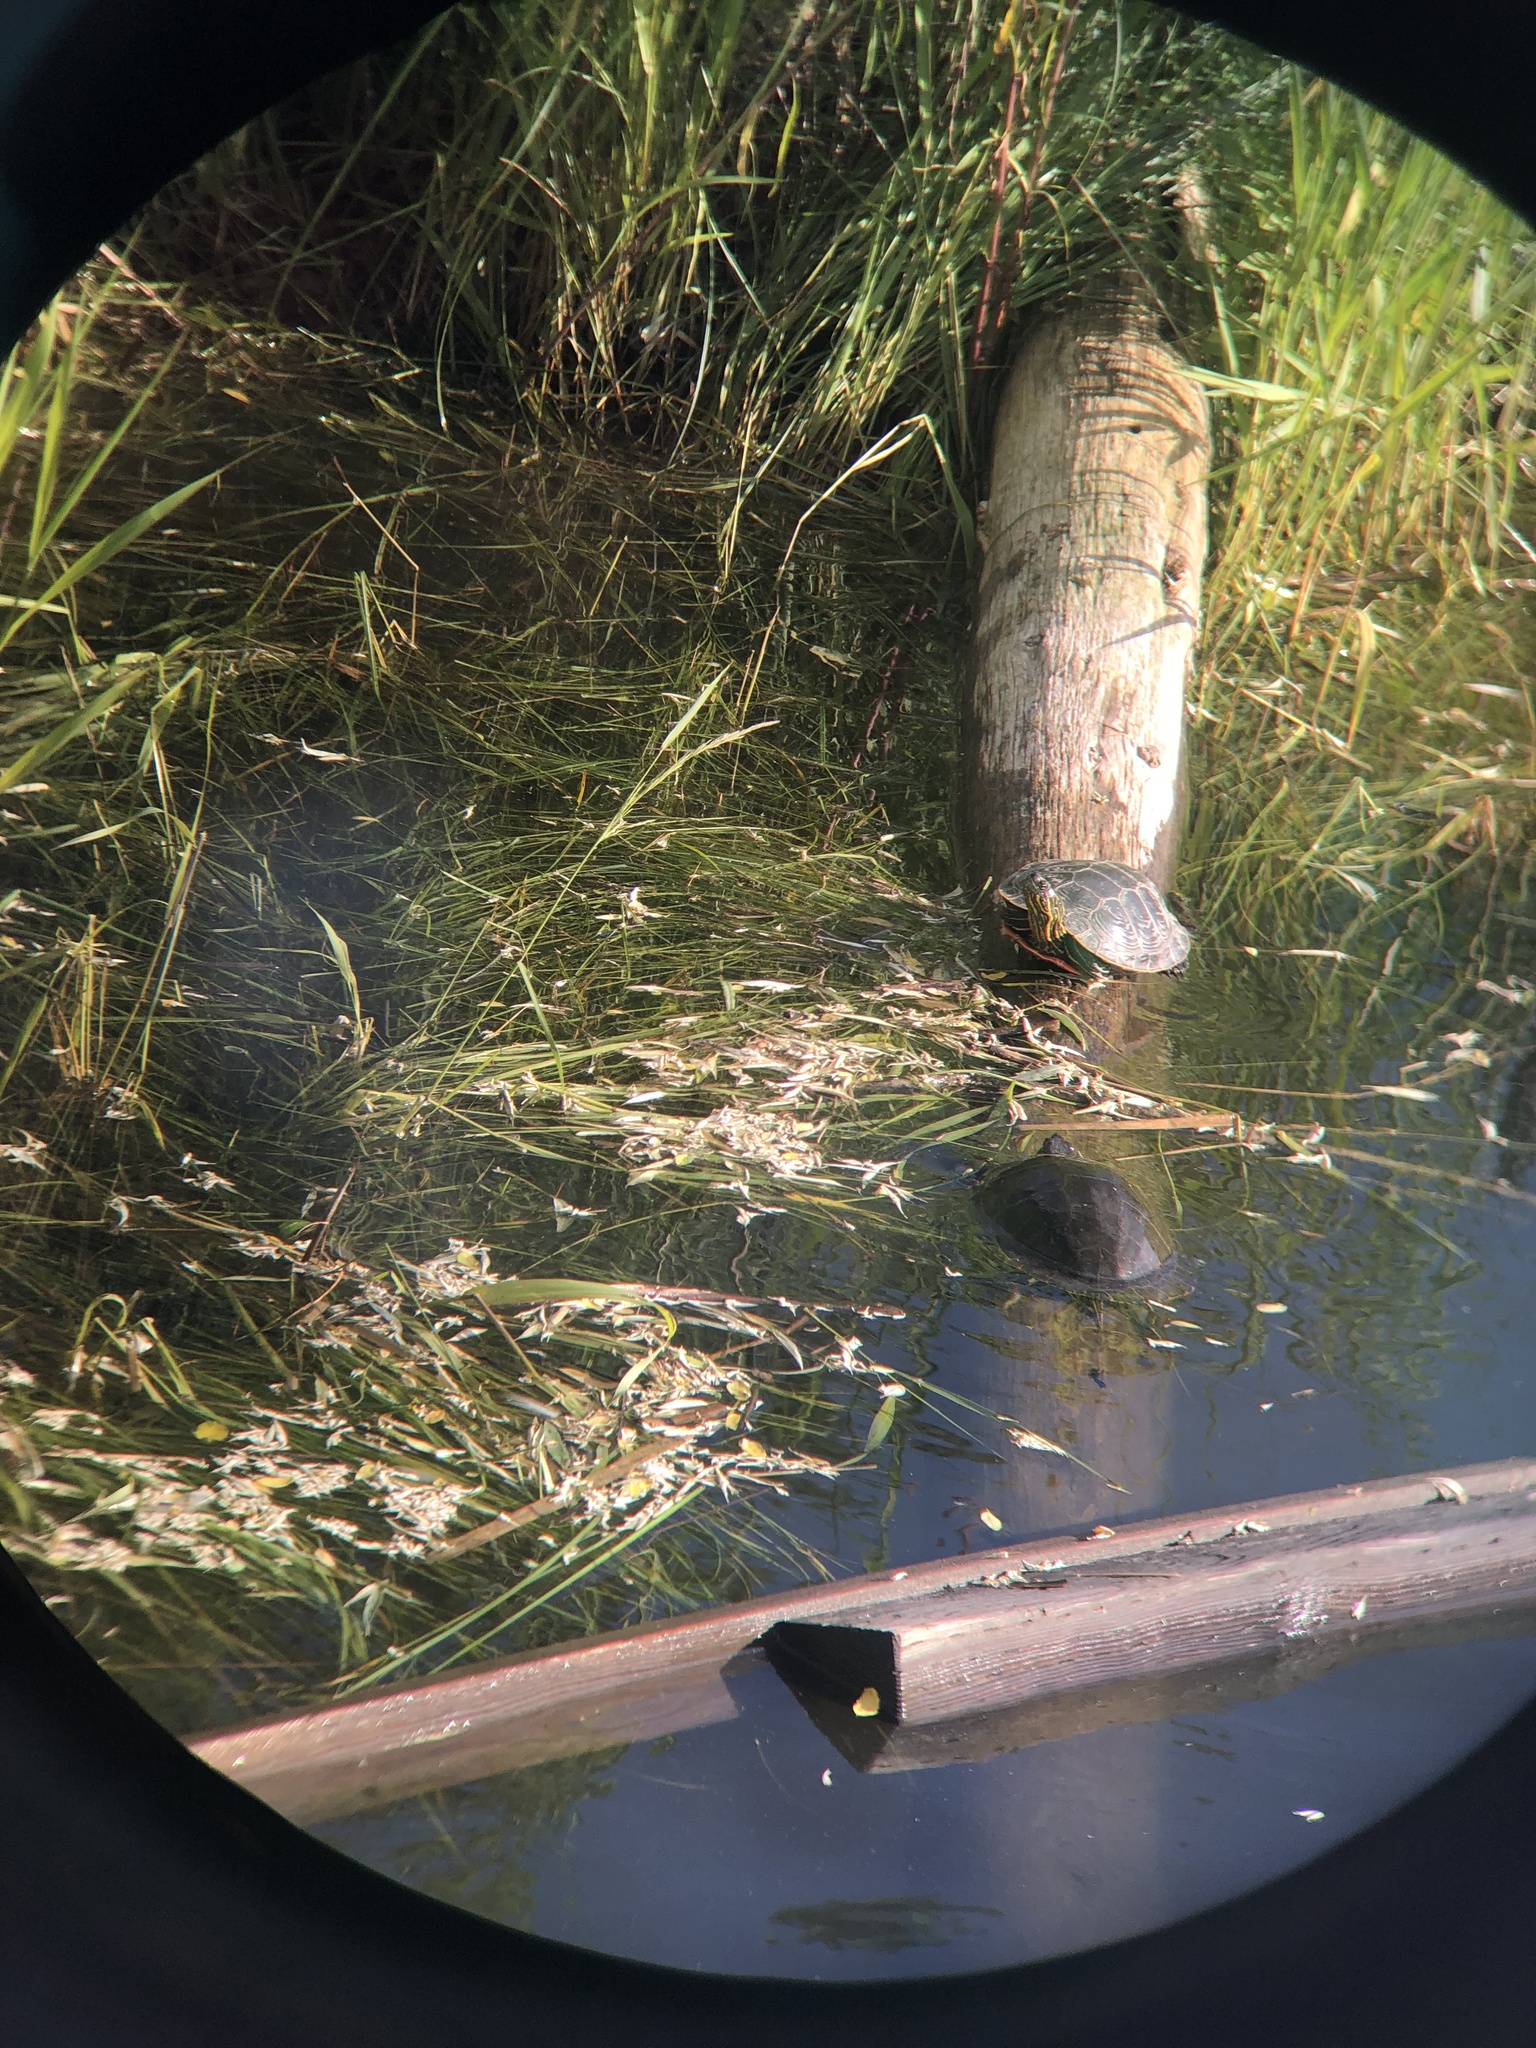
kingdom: Animalia
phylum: Chordata
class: Testudines
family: Emydidae
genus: Chrysemys
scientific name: Chrysemys picta
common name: Painted turtle
